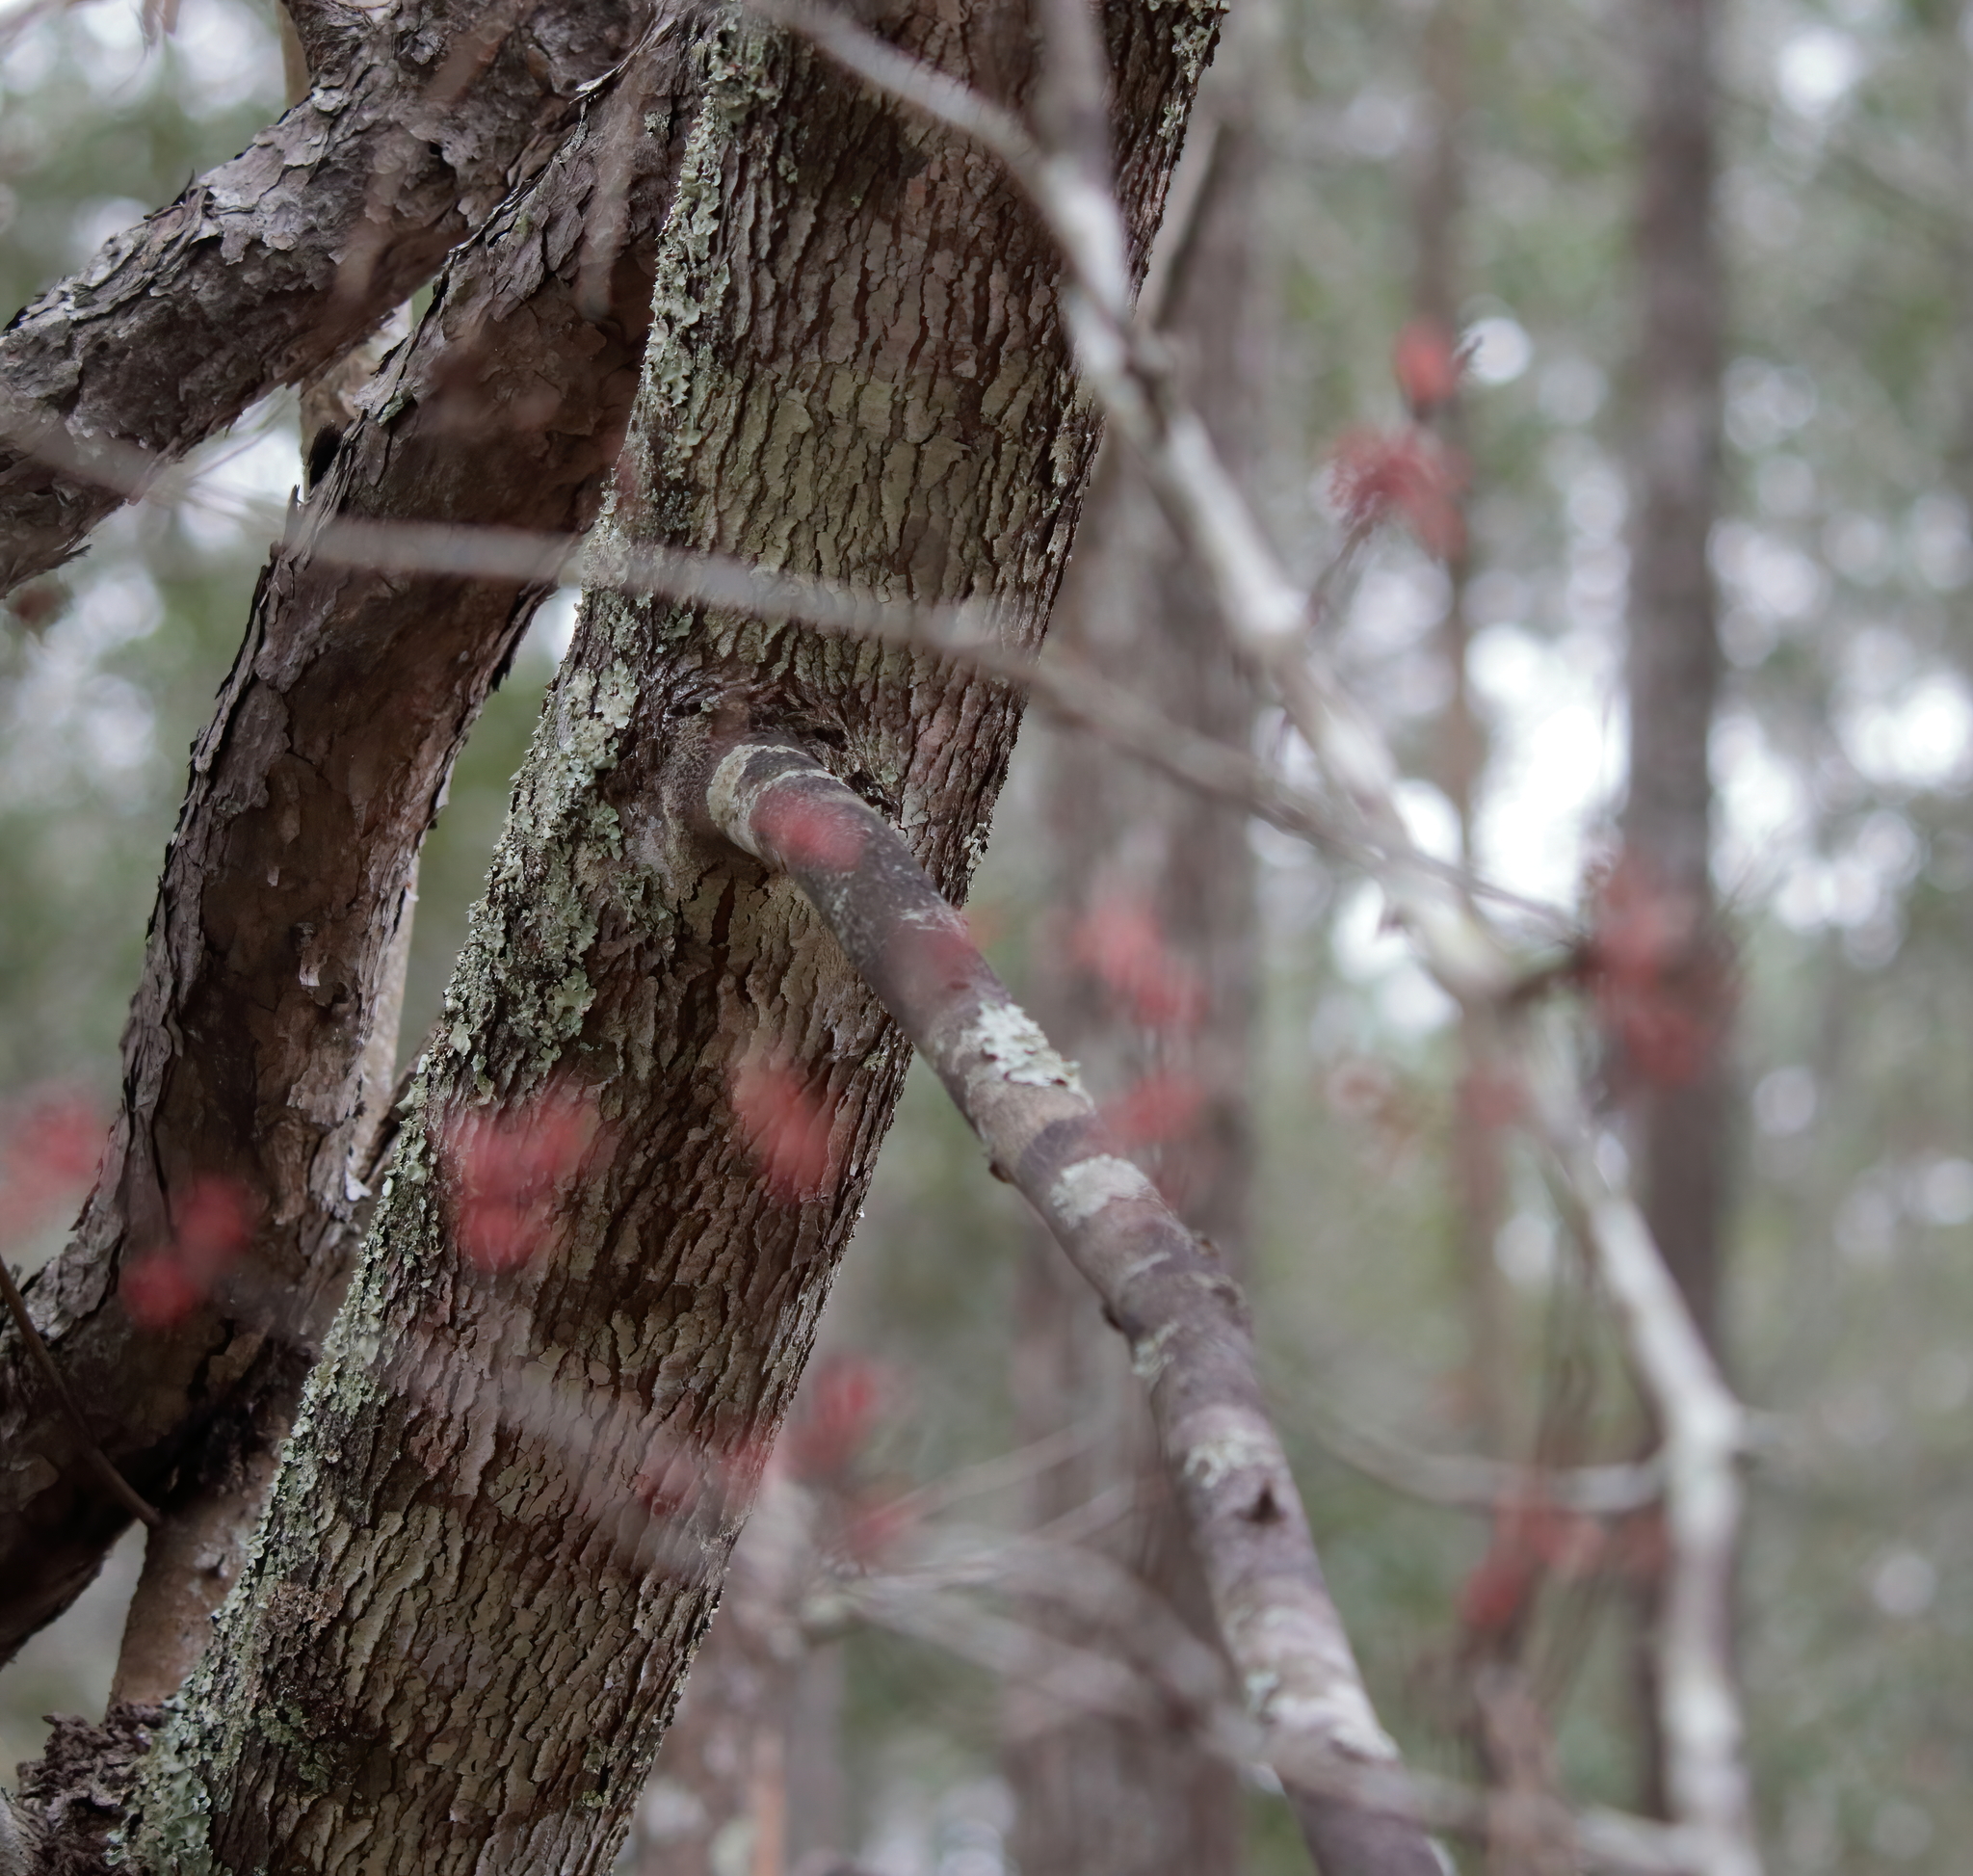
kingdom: Plantae
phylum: Tracheophyta
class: Magnoliopsida
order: Sapindales
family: Sapindaceae
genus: Acer
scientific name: Acer rubrum
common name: Red maple
